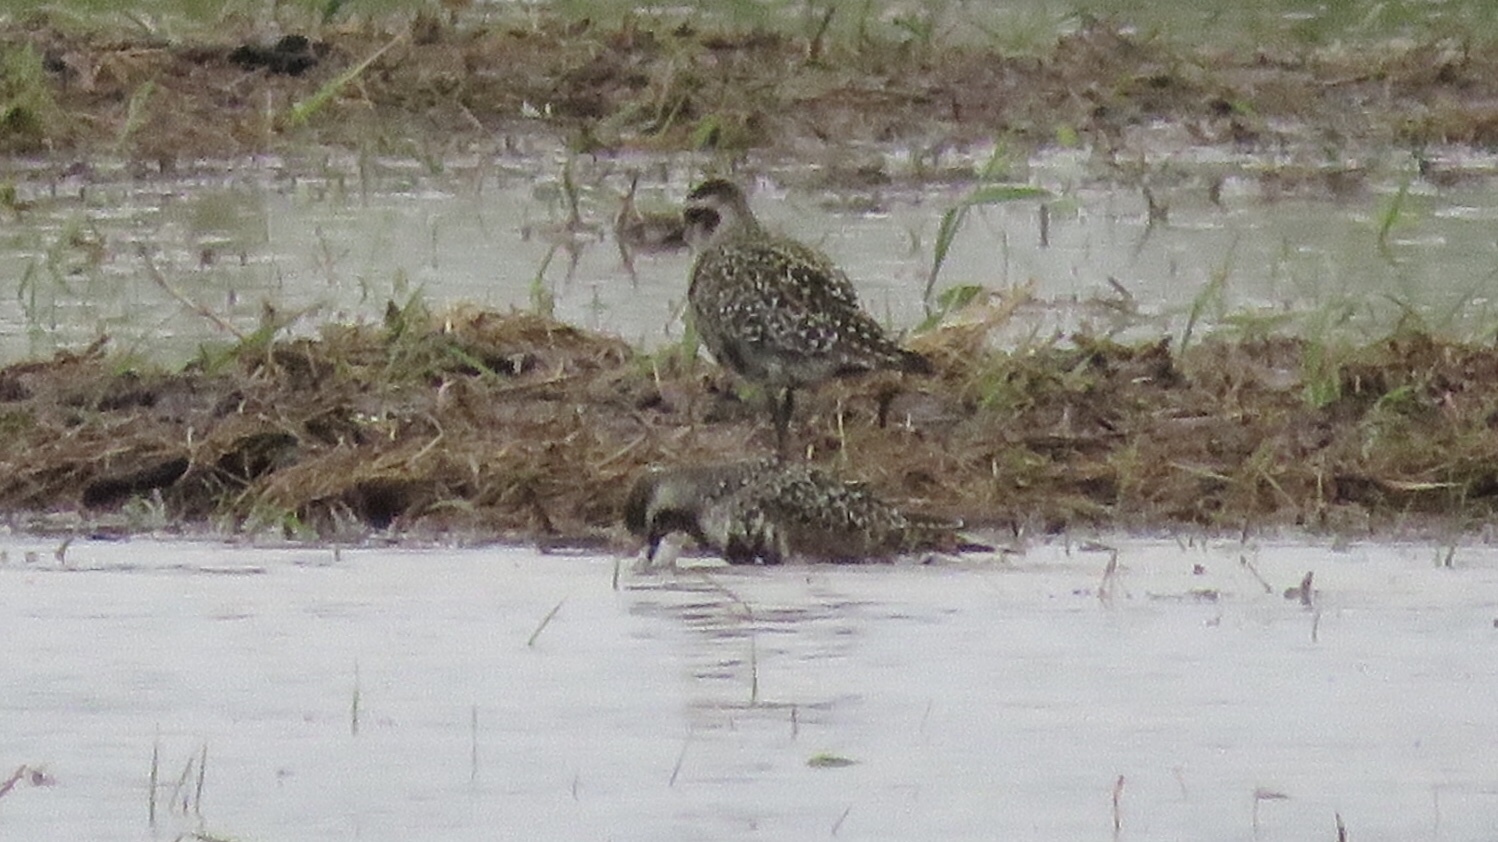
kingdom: Animalia
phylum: Chordata
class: Aves
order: Charadriiformes
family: Charadriidae
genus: Pluvialis
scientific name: Pluvialis dominica
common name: American golden plover
